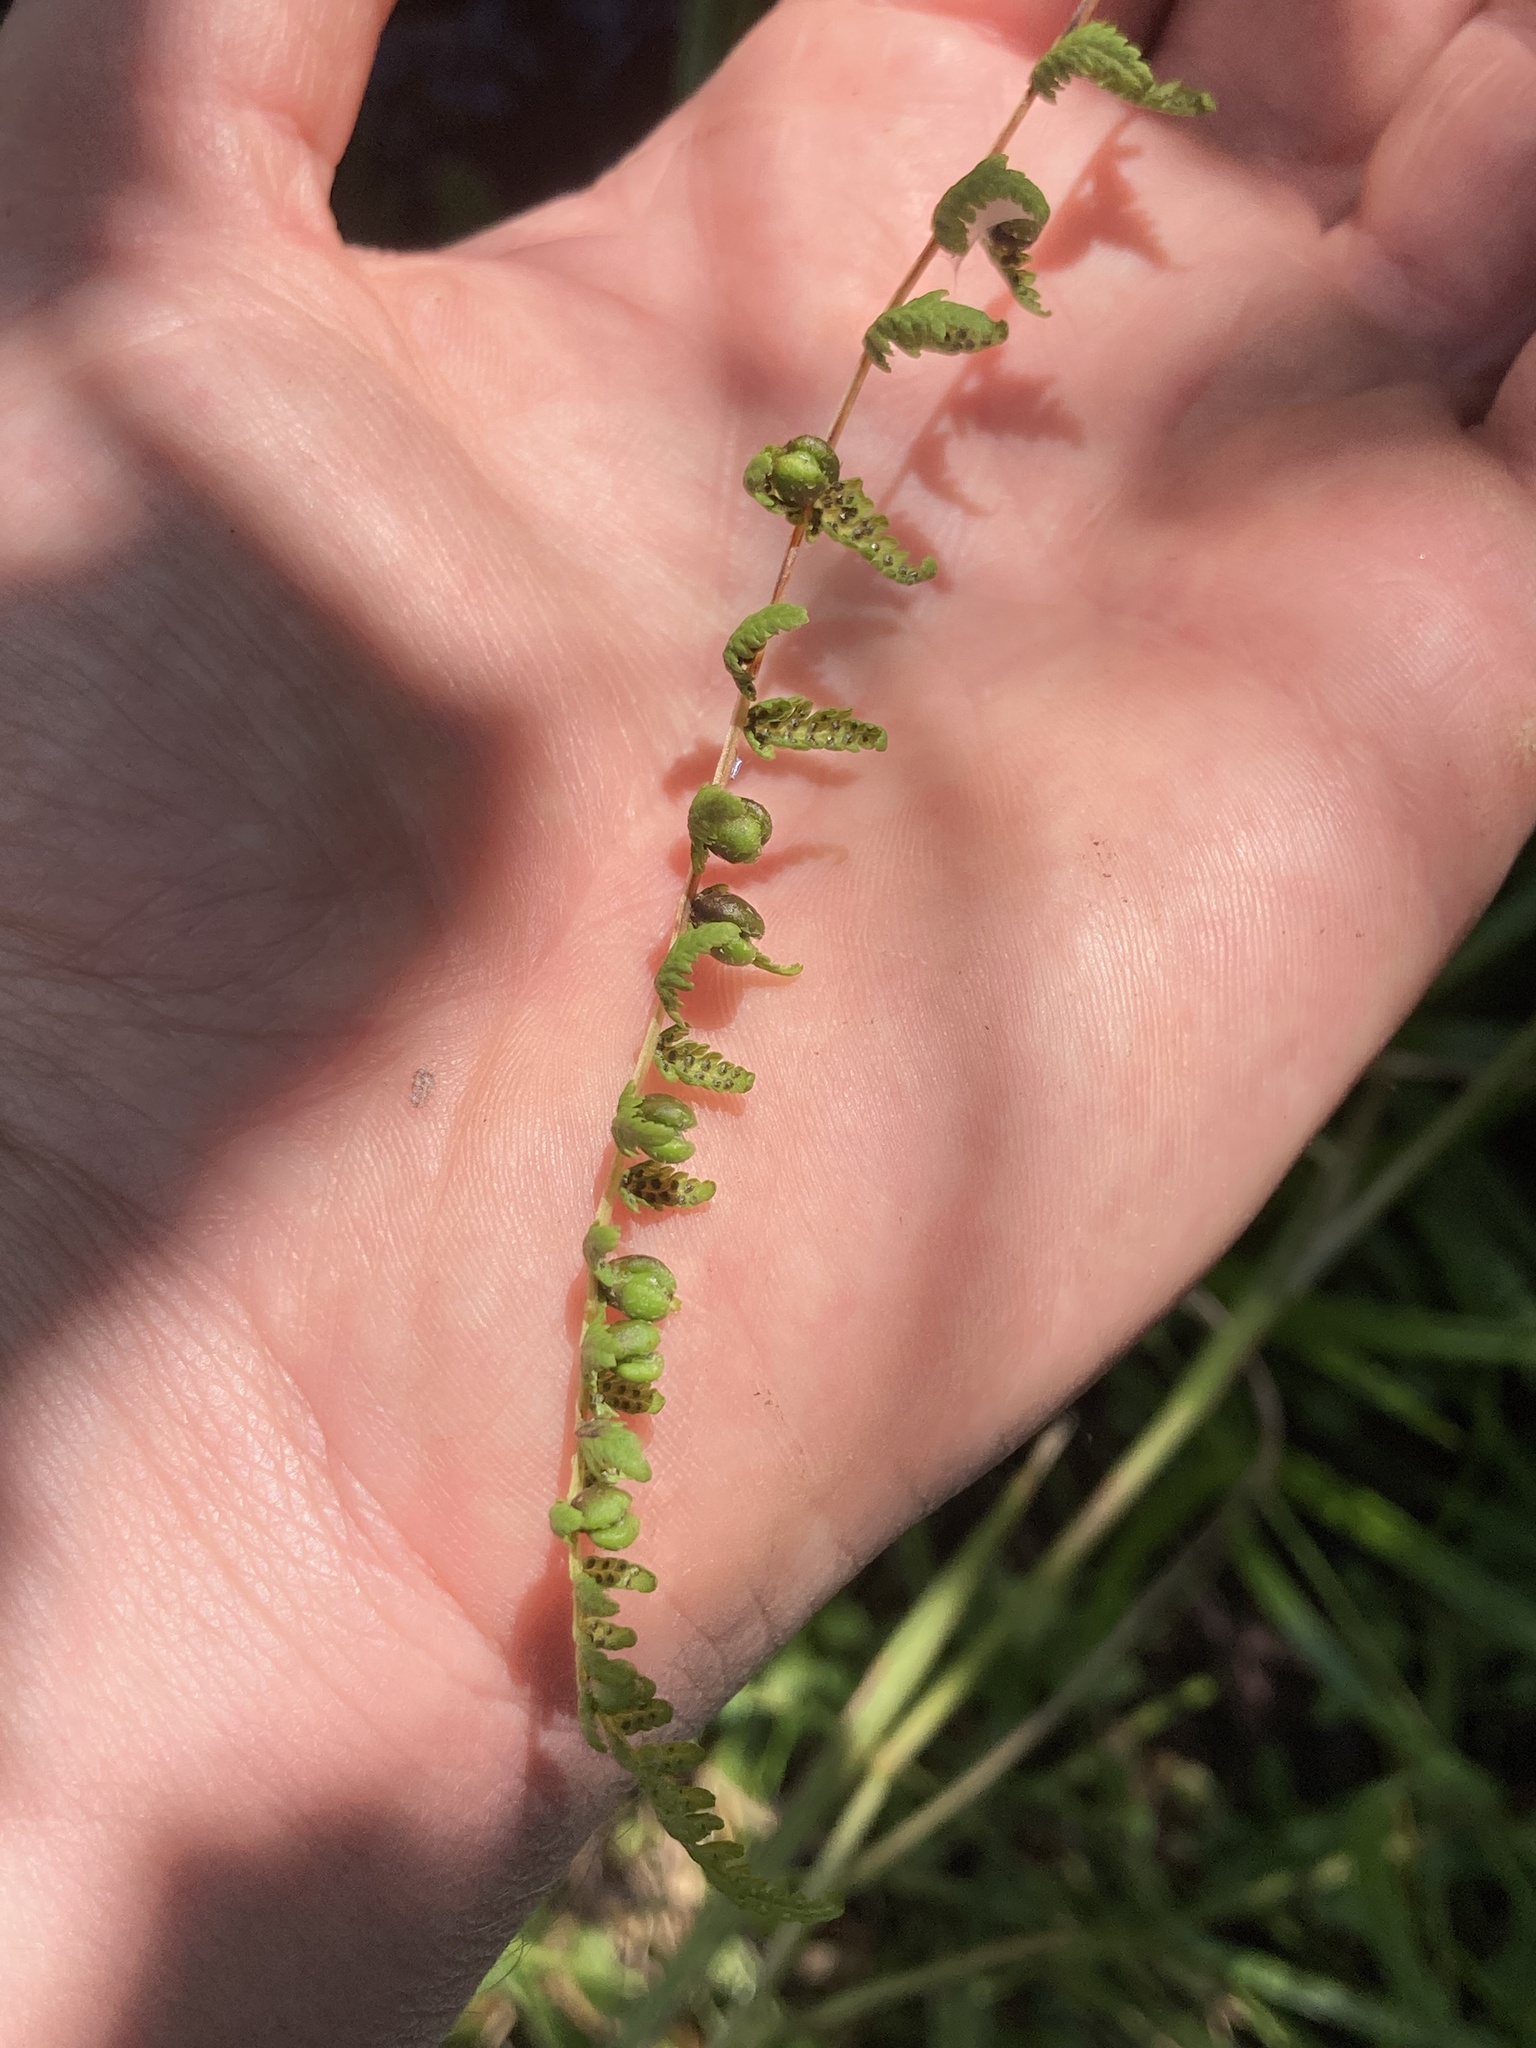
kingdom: Plantae
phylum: Tracheophyta
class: Polypodiopsida
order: Polypodiales
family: Cystopteridaceae
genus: Cystopteris
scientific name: Cystopteris bulbifera
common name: Bulblet bladder fern
